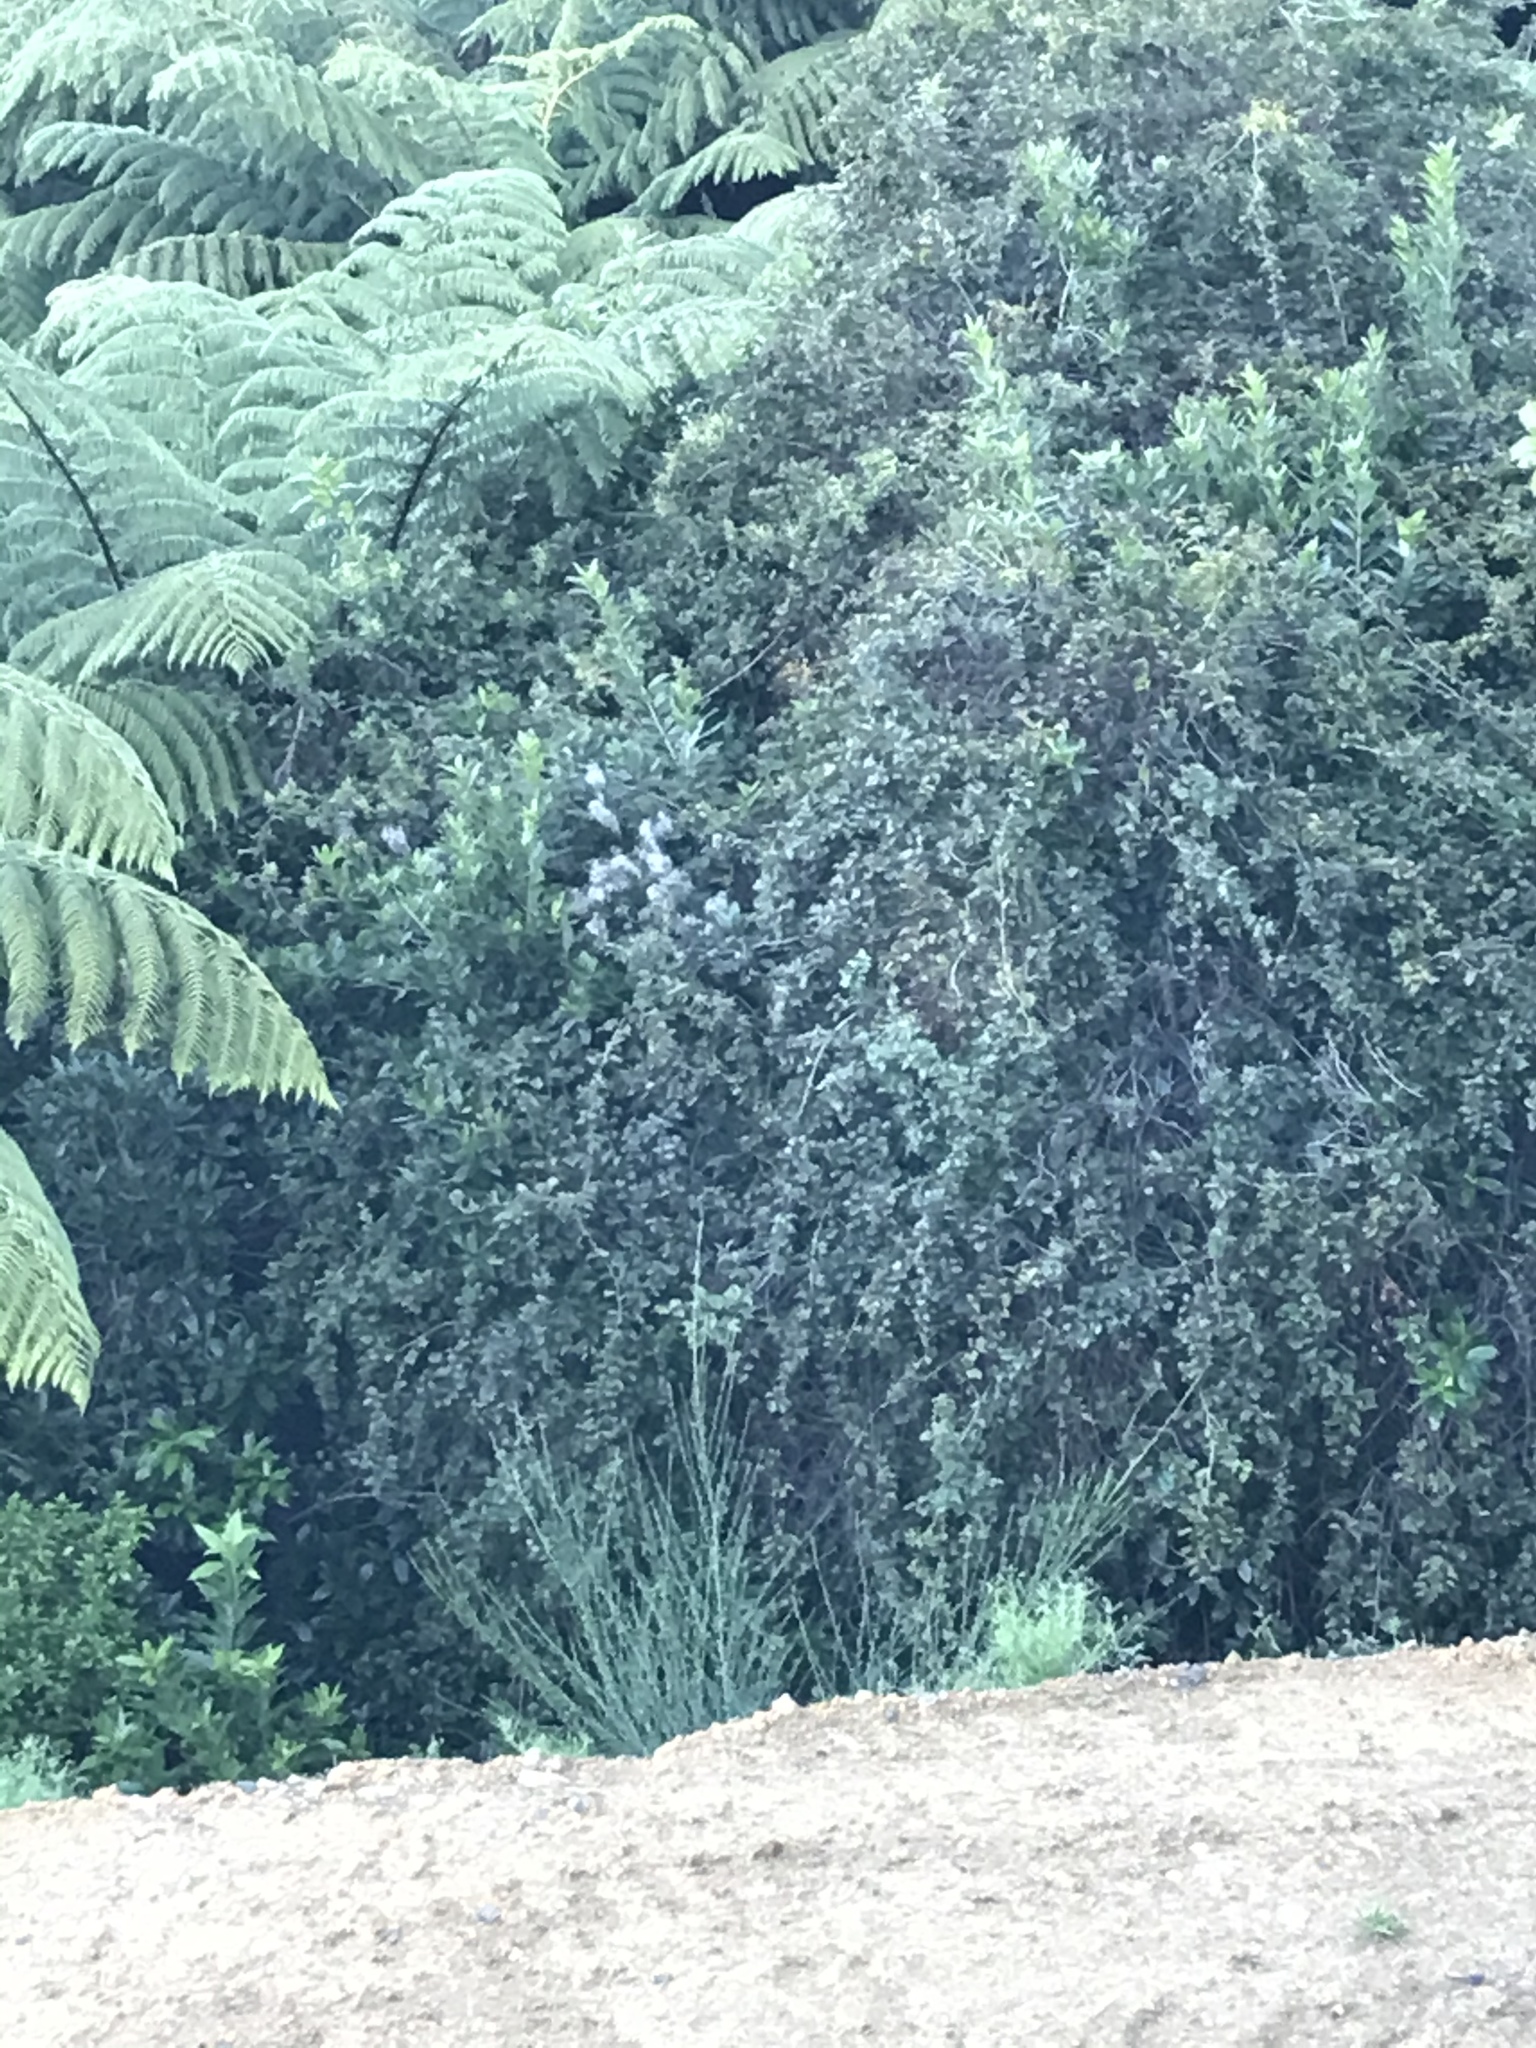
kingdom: Plantae
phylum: Tracheophyta
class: Magnoliopsida
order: Ranunculales
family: Ranunculaceae
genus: Clematis
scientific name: Clematis vitalba
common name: Evergreen clematis
